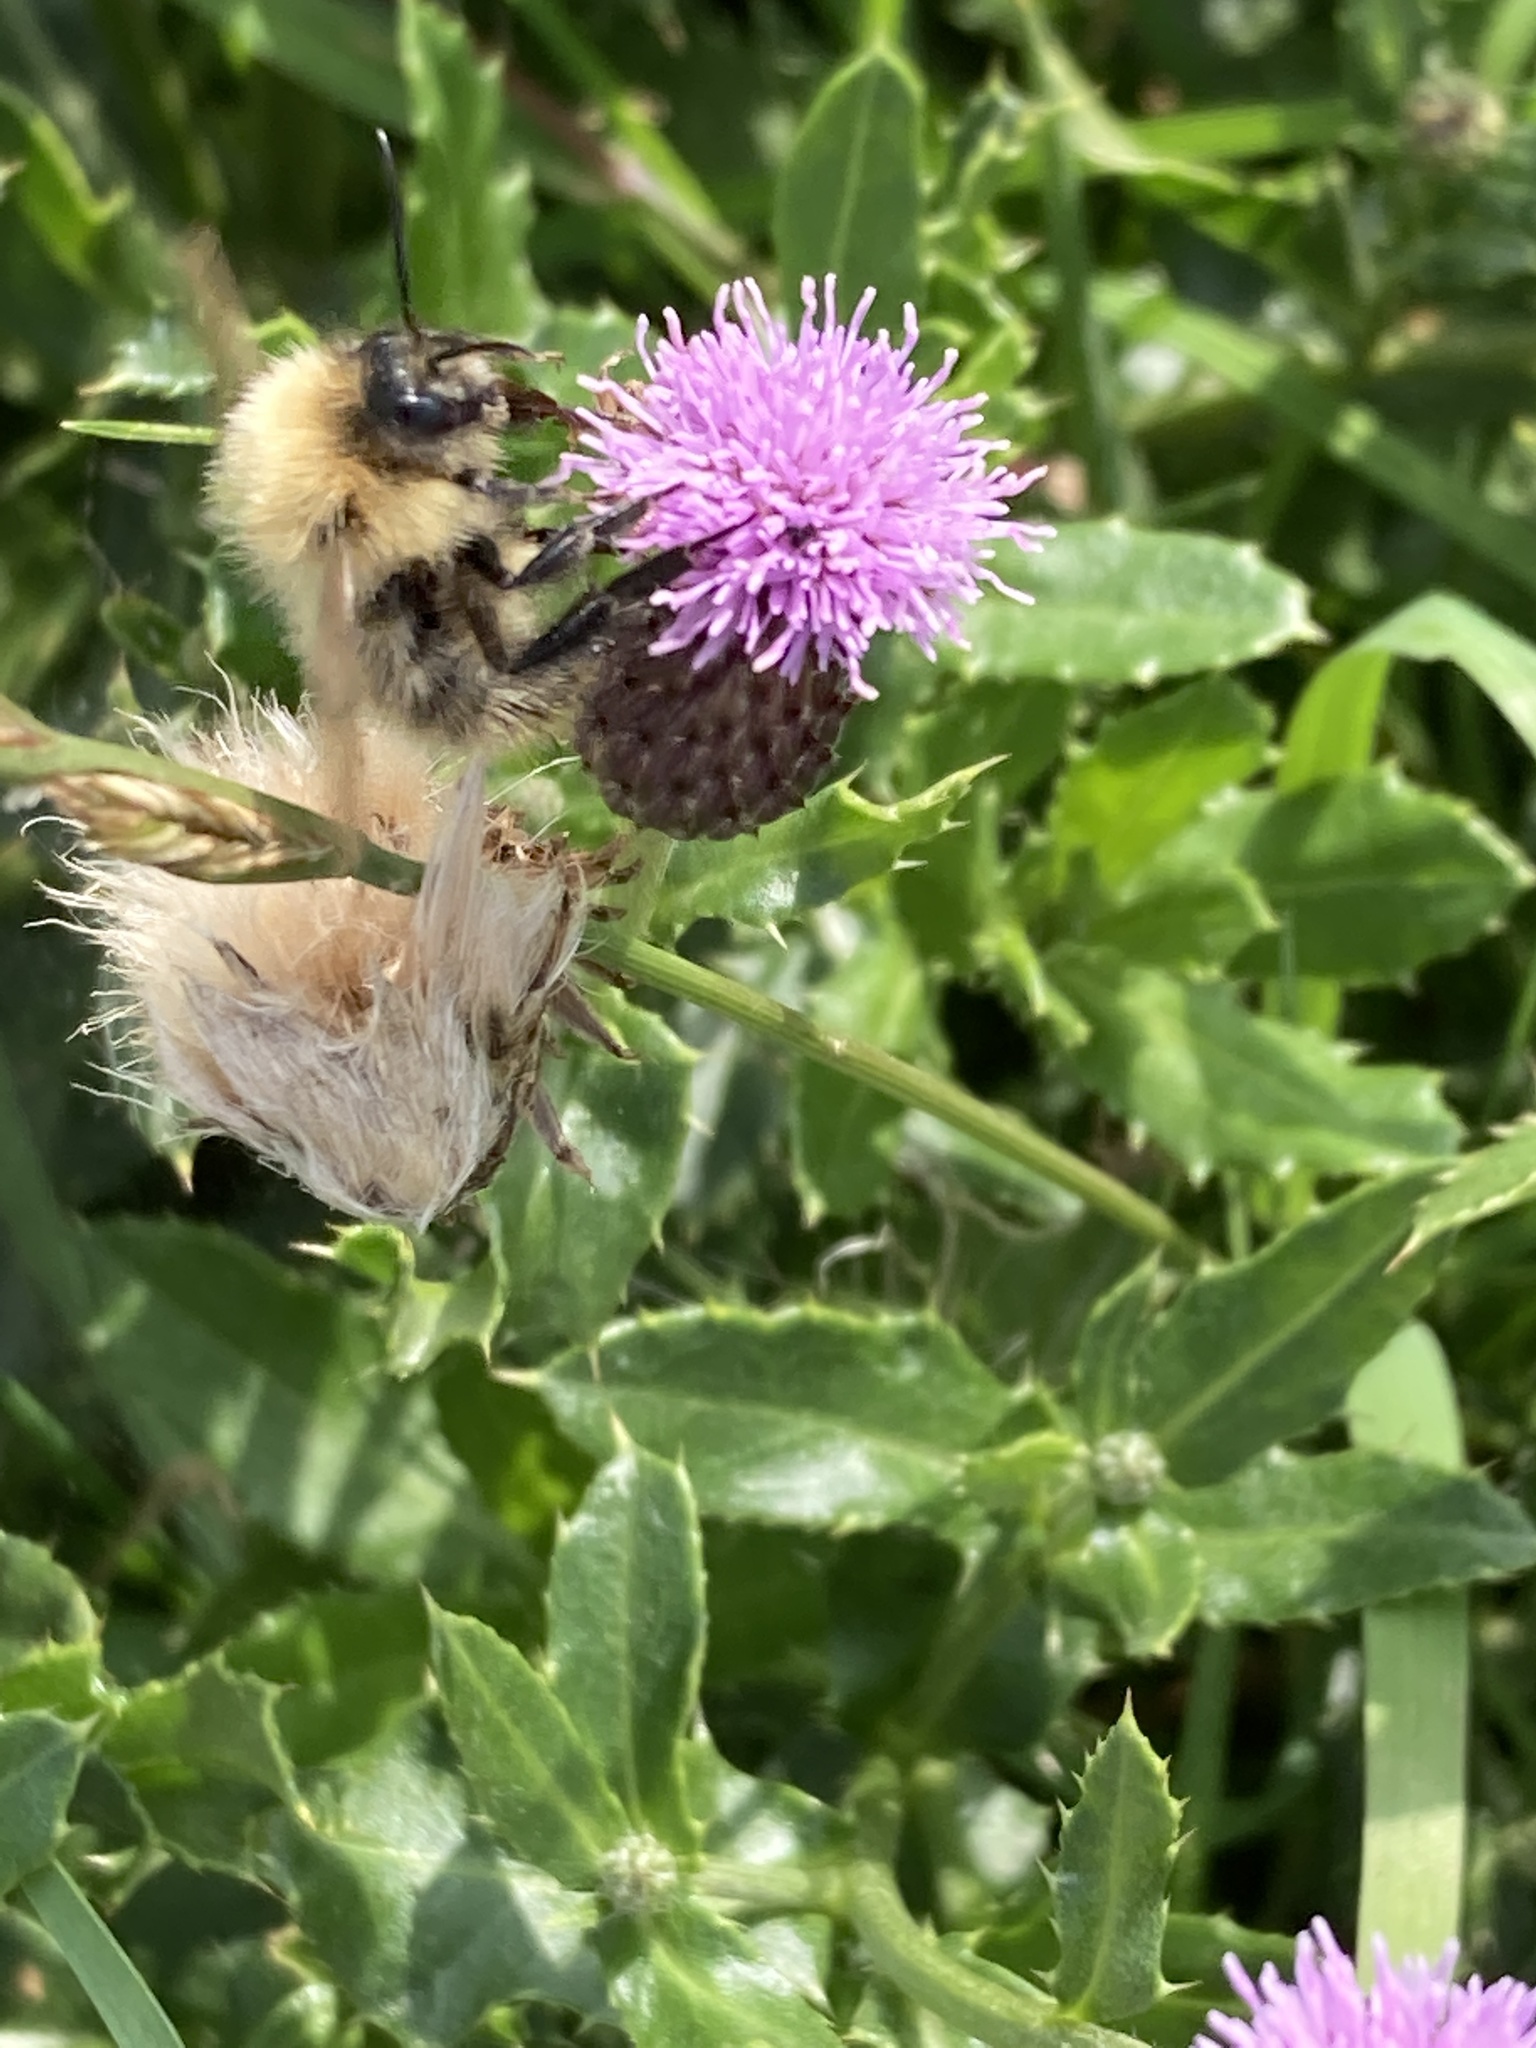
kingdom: Animalia
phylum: Arthropoda
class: Insecta
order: Hymenoptera
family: Apidae
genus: Bombus
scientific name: Bombus pascuorum
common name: Common carder bee
